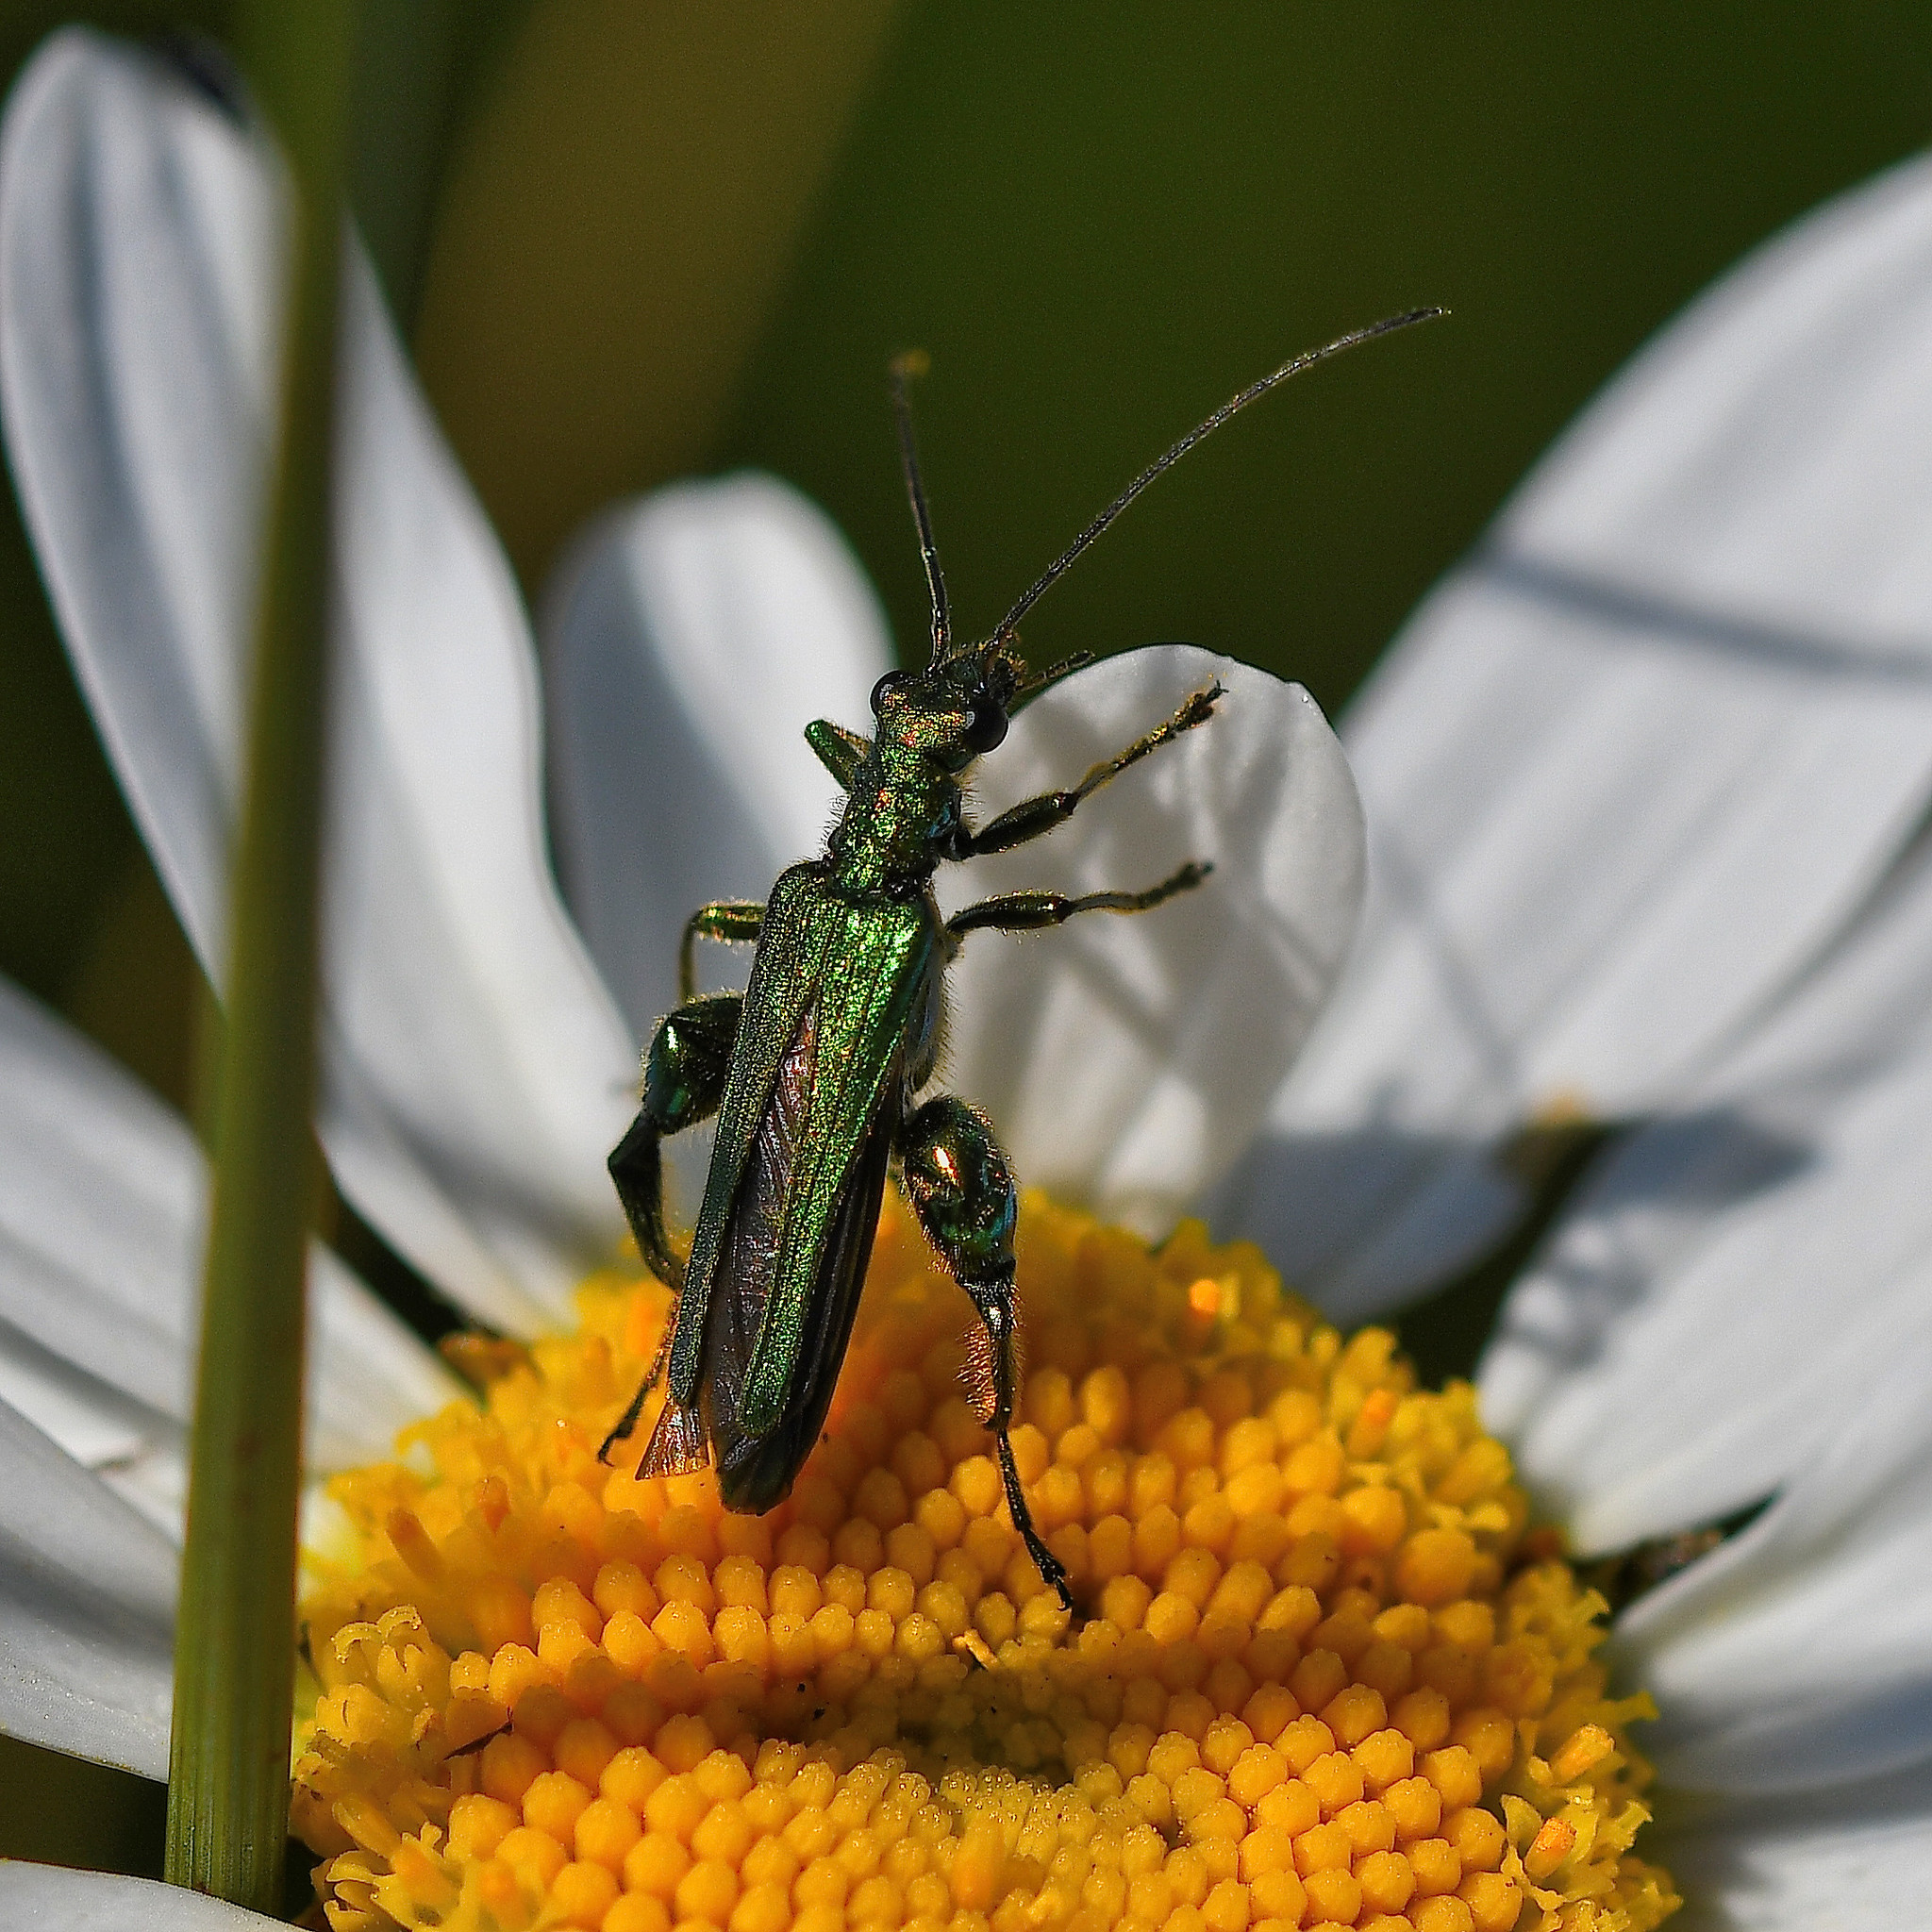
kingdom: Animalia
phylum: Arthropoda
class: Insecta
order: Coleoptera
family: Oedemeridae
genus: Oedemera
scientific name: Oedemera nobilis
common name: Swollen-thighed beetle
